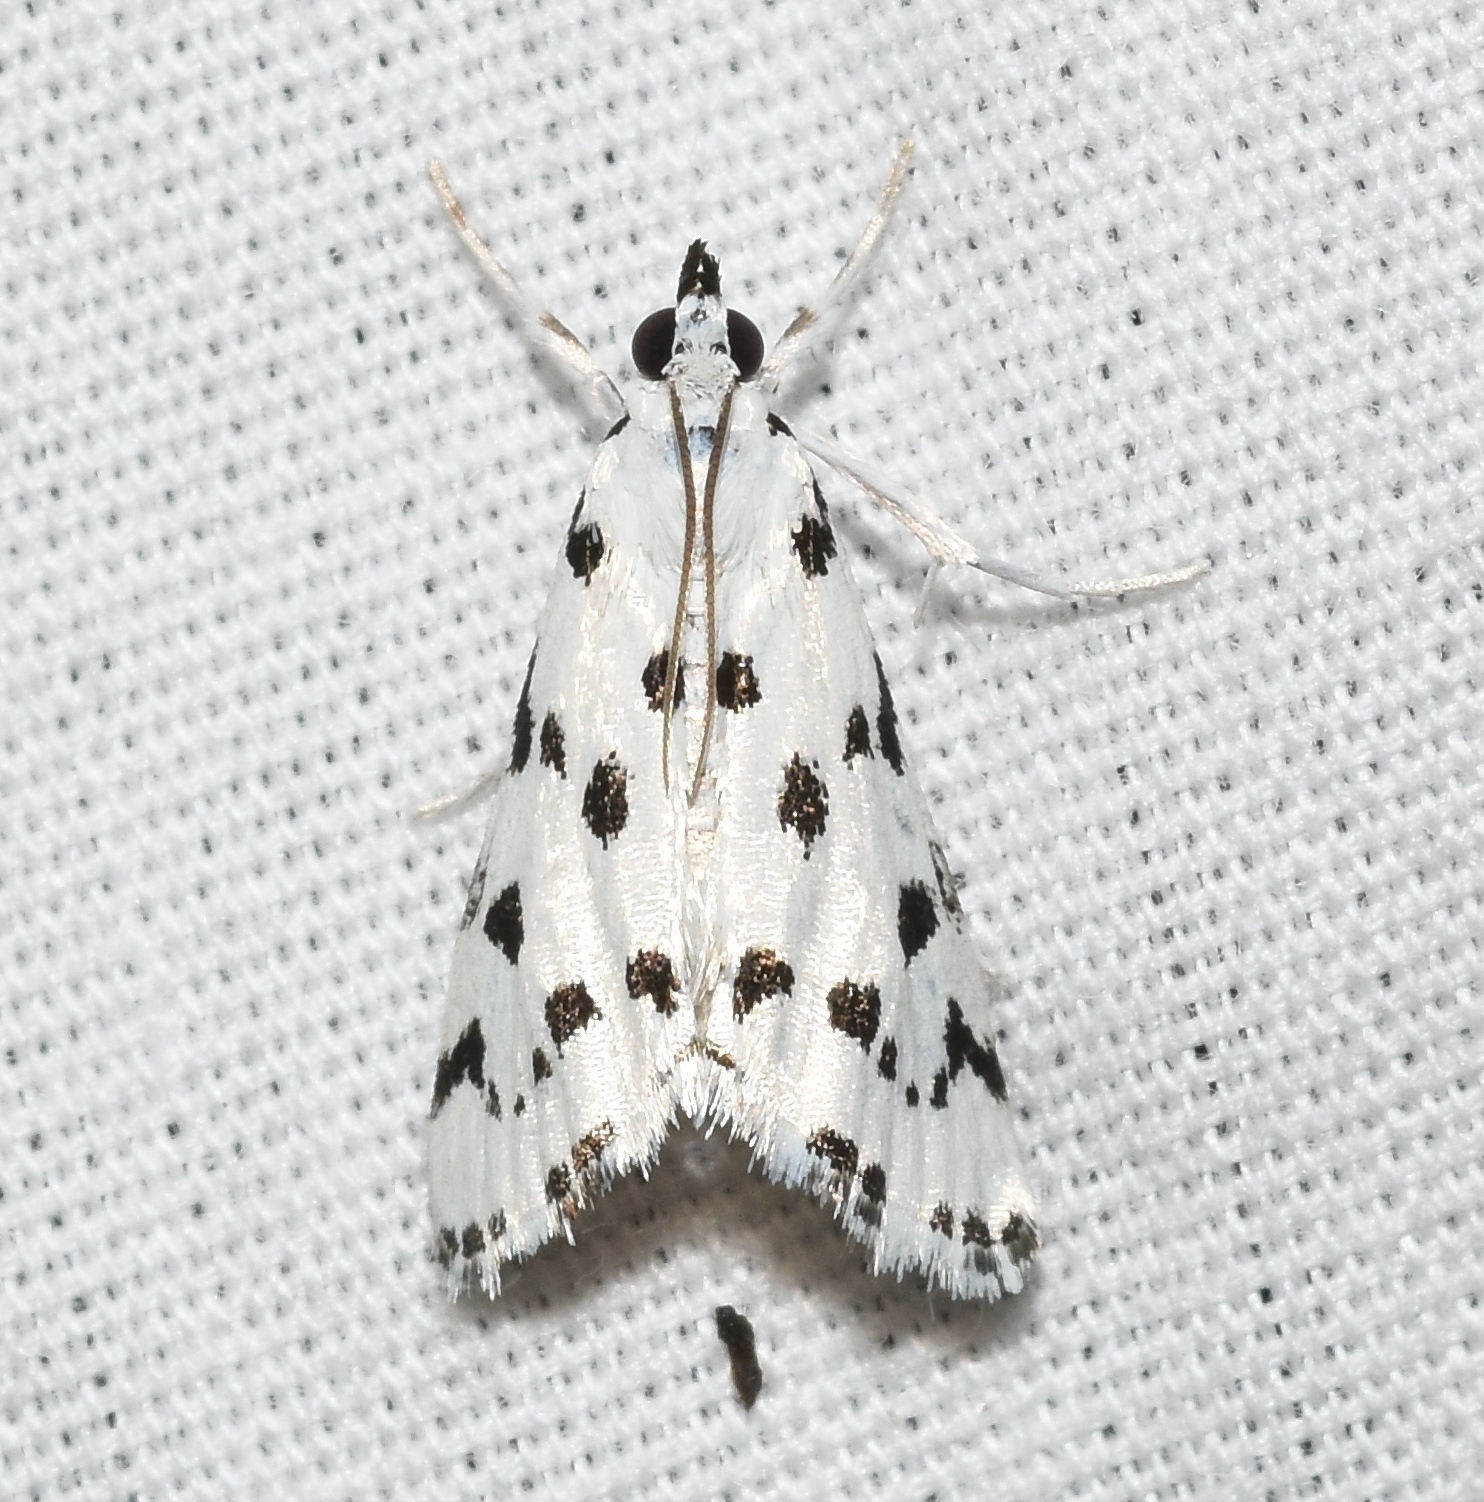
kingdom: Animalia
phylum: Arthropoda
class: Insecta
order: Lepidoptera
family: Crambidae
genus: Eustixia
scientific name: Eustixia pupula
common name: American cabbage pearl
